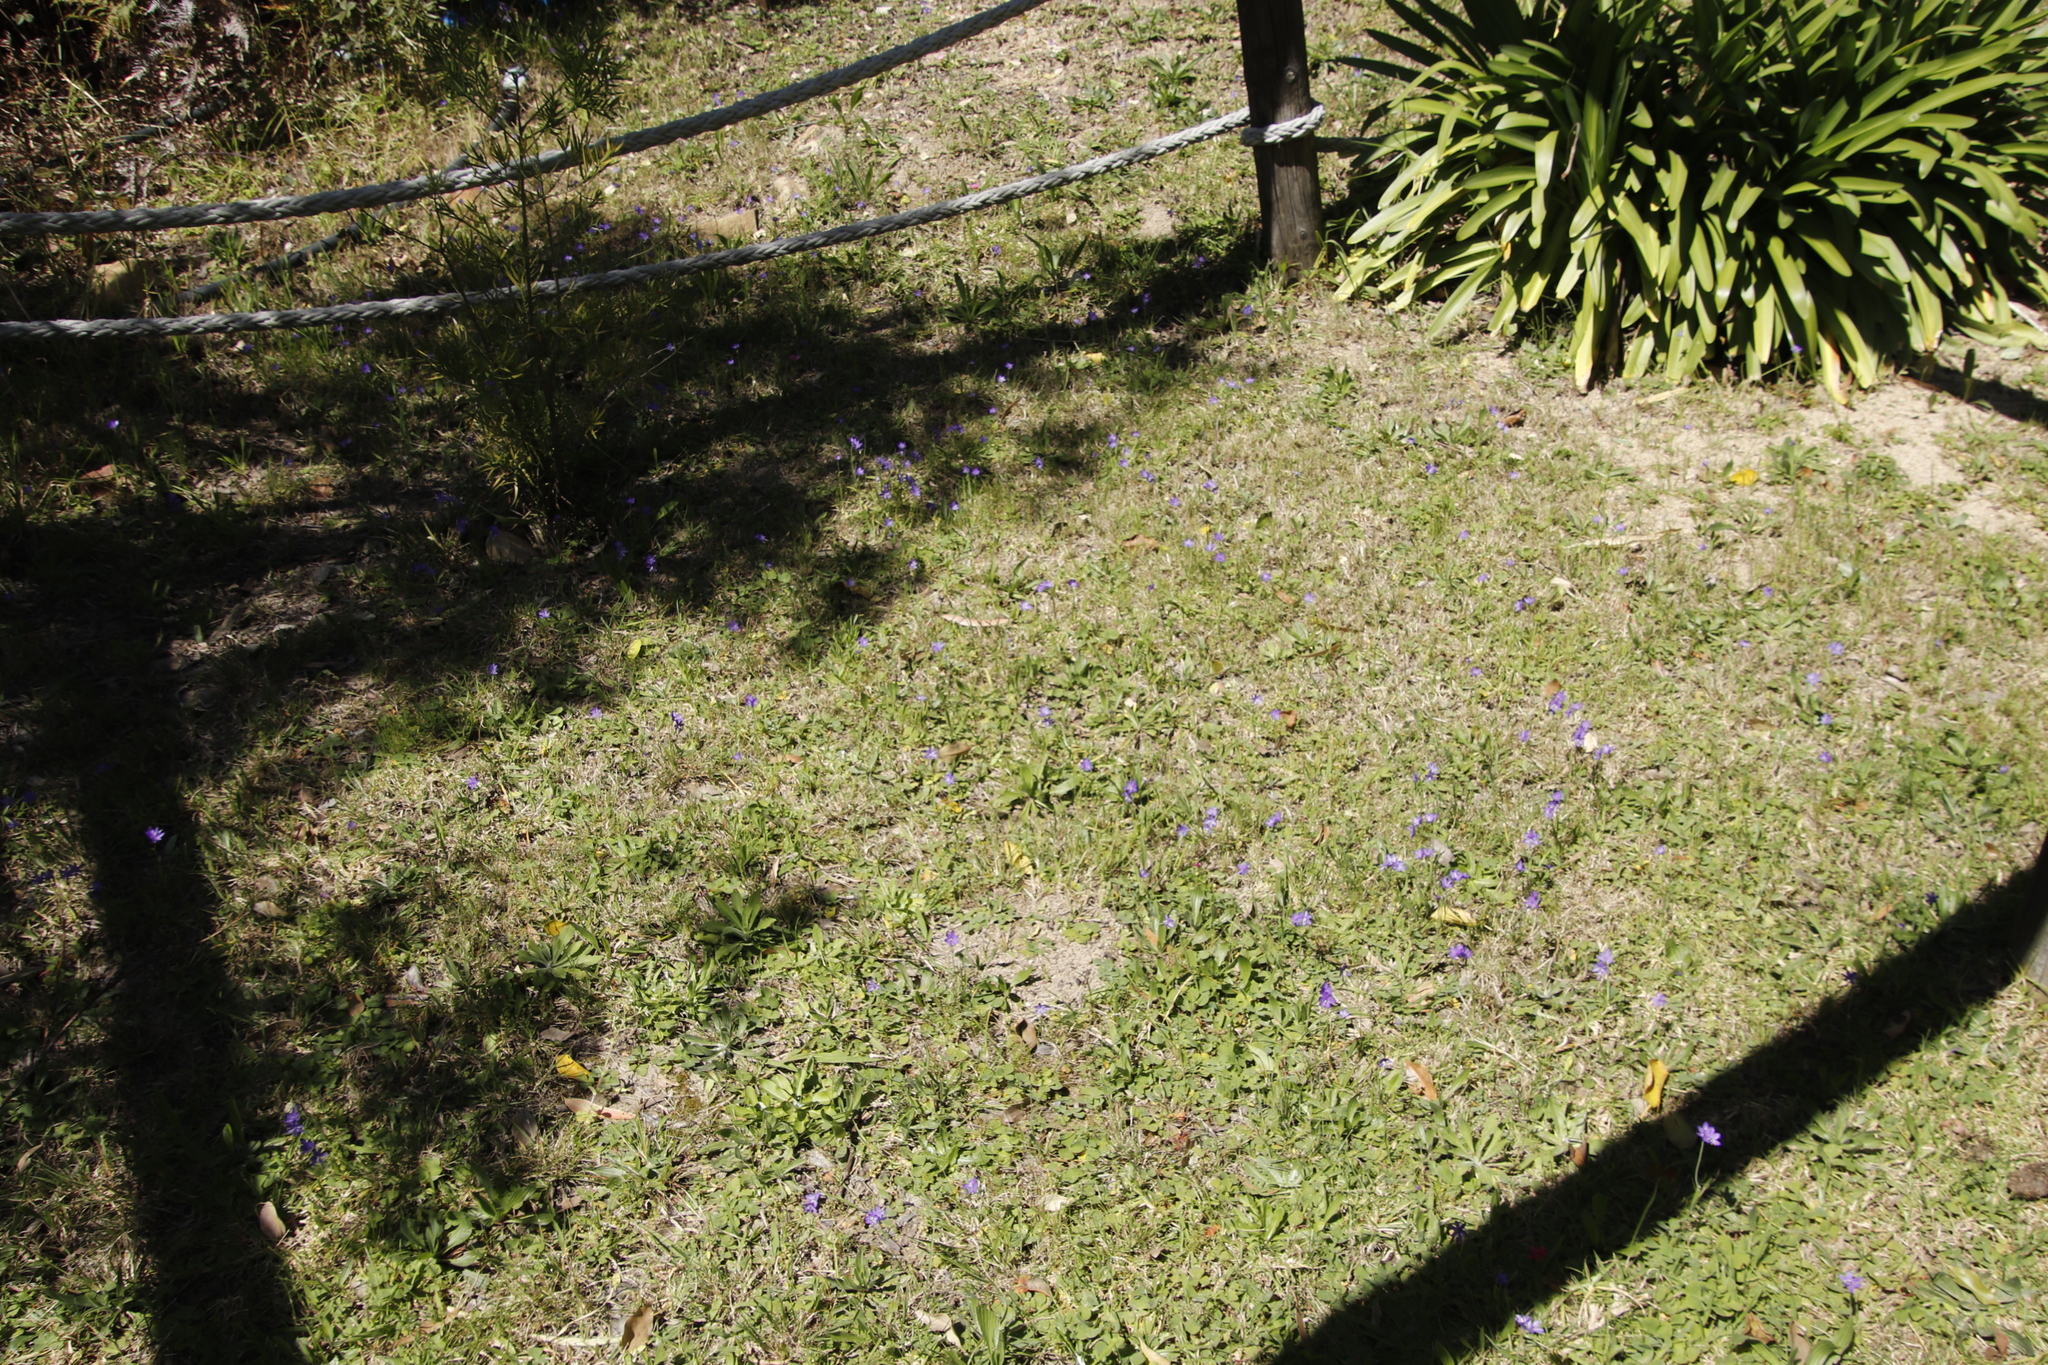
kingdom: Plantae
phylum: Tracheophyta
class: Liliopsida
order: Asparagales
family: Iridaceae
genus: Geissorhiza
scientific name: Geissorhiza aspera
